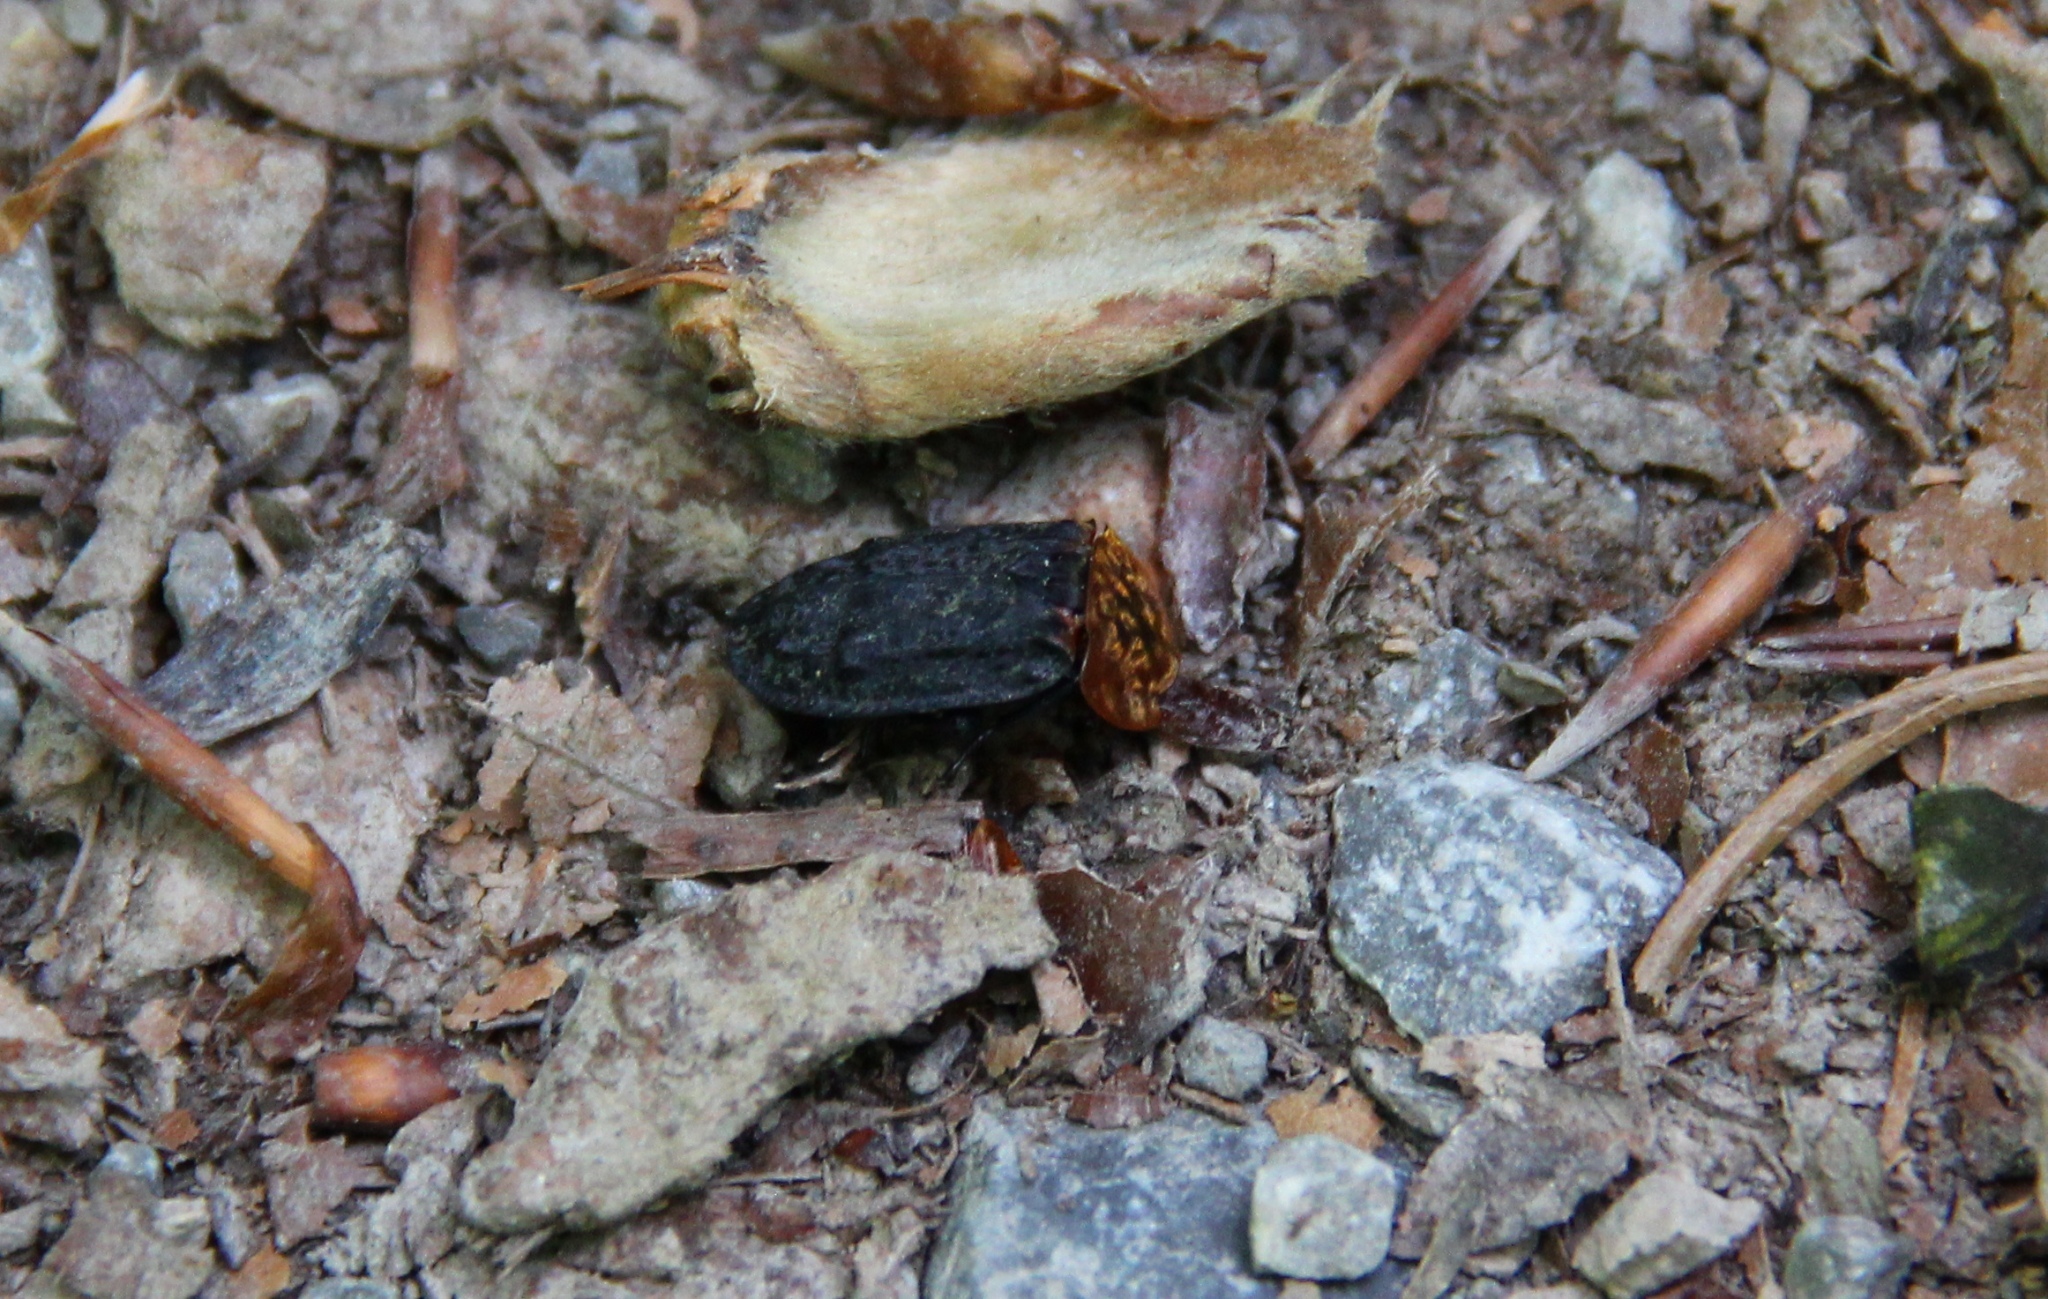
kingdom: Animalia
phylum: Arthropoda
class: Insecta
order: Coleoptera
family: Staphylinidae
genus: Oiceoptoma
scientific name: Oiceoptoma thoracicum
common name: Red-breasted carrion beetle
